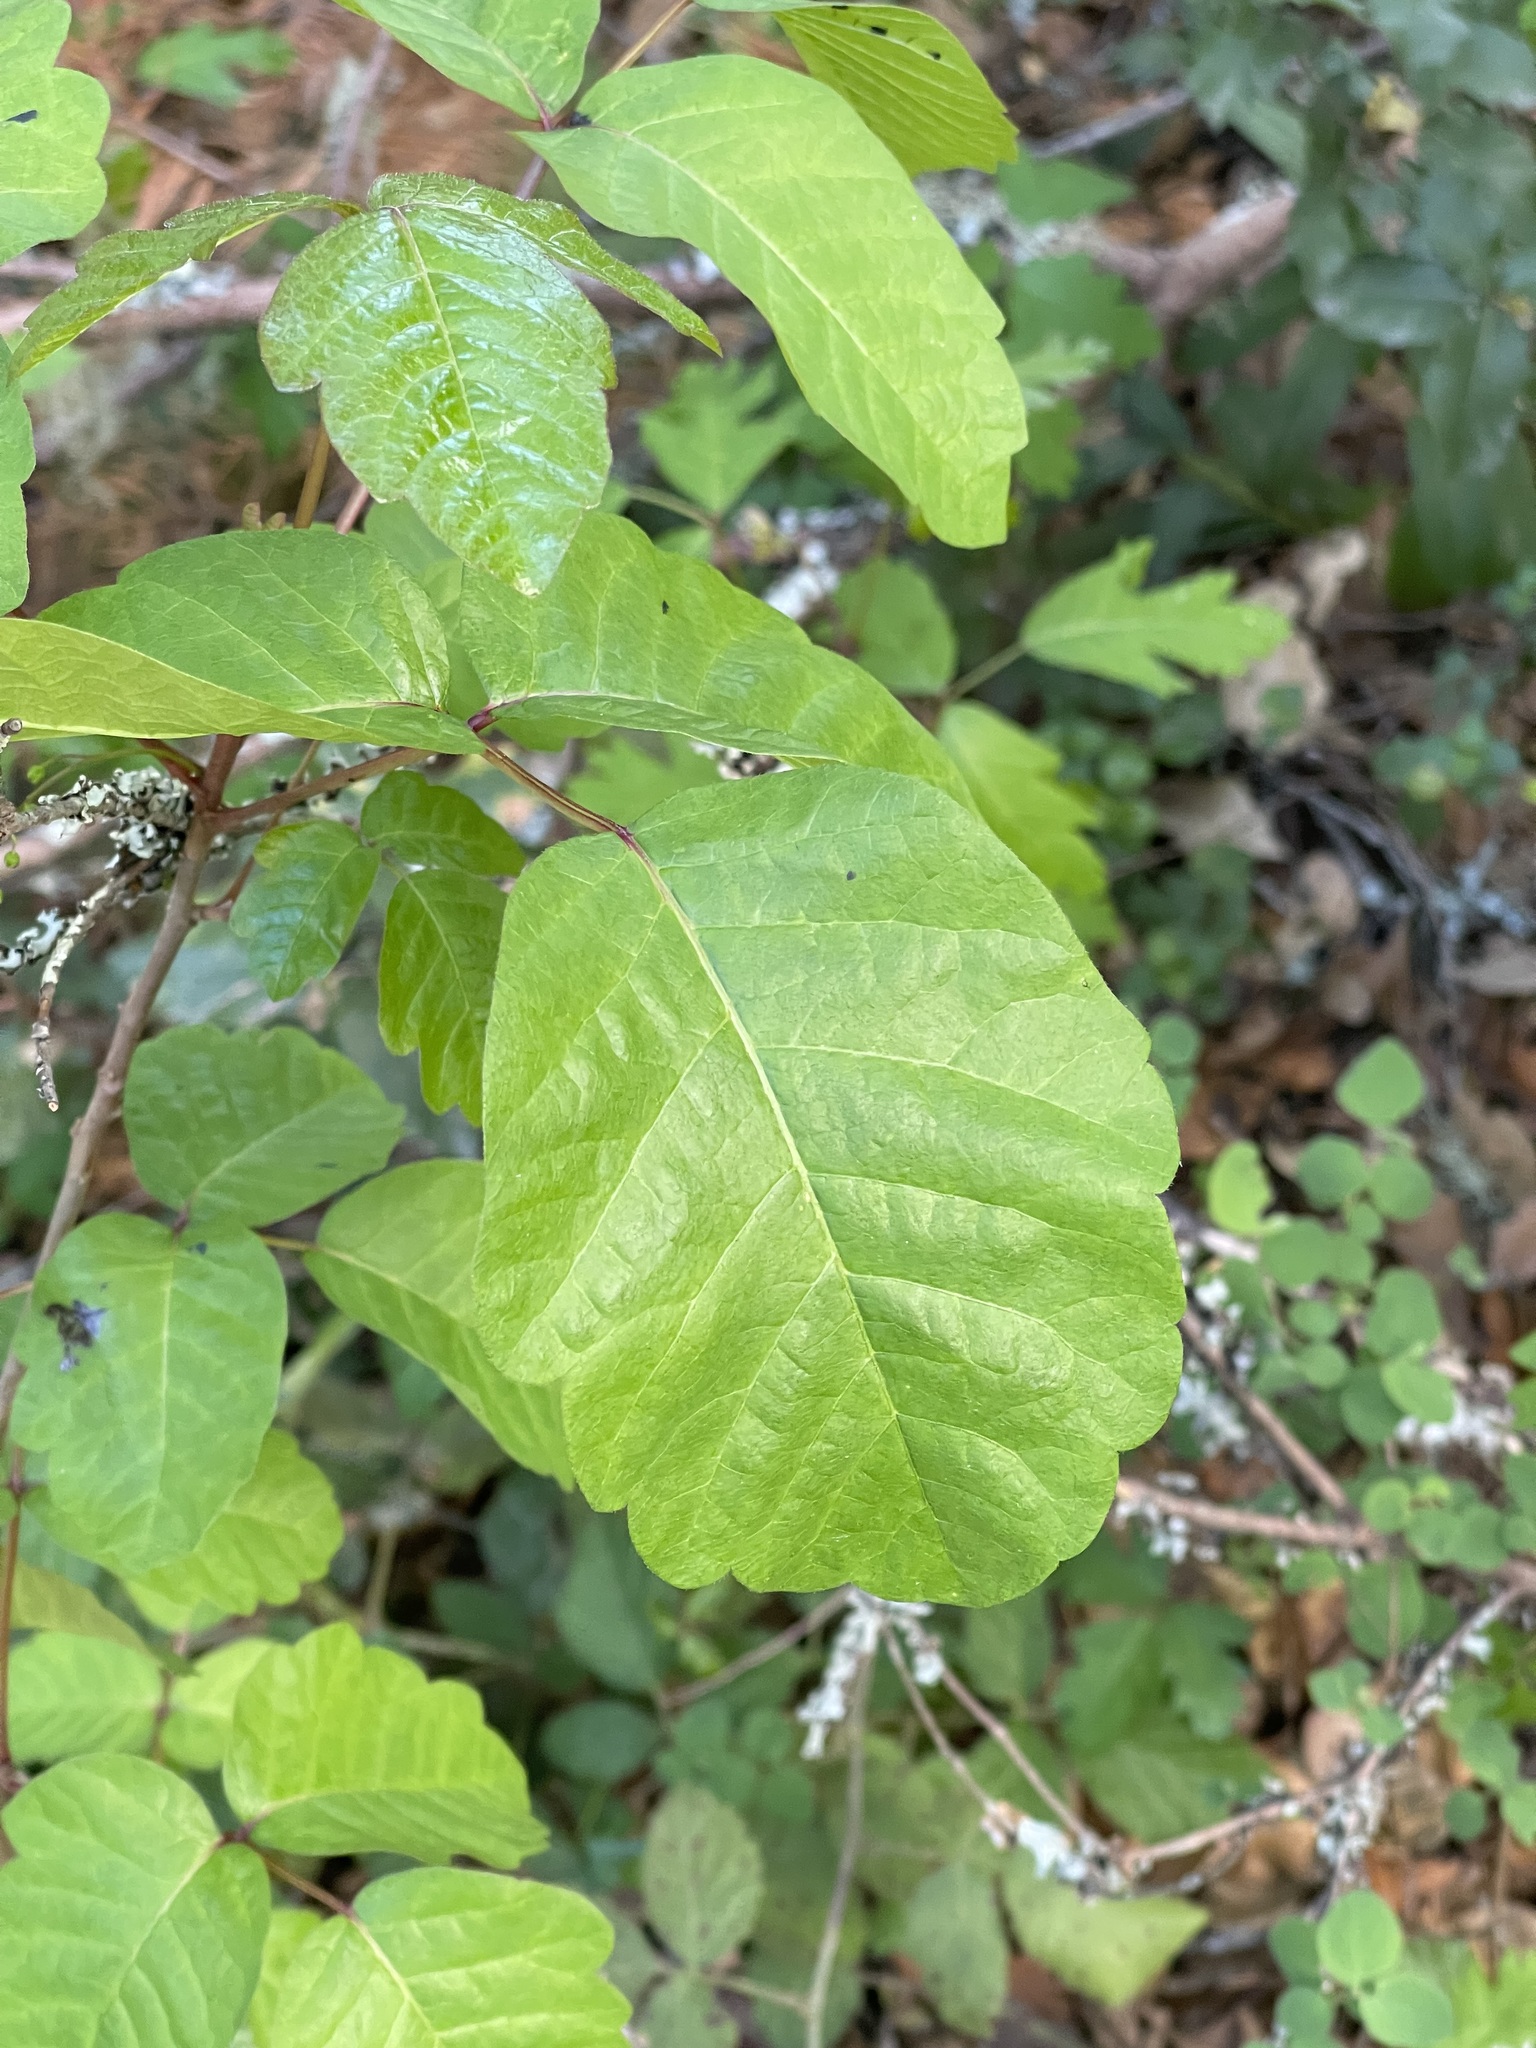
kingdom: Plantae
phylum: Tracheophyta
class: Magnoliopsida
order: Sapindales
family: Anacardiaceae
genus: Toxicodendron
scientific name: Toxicodendron diversilobum
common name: Pacific poison-oak
